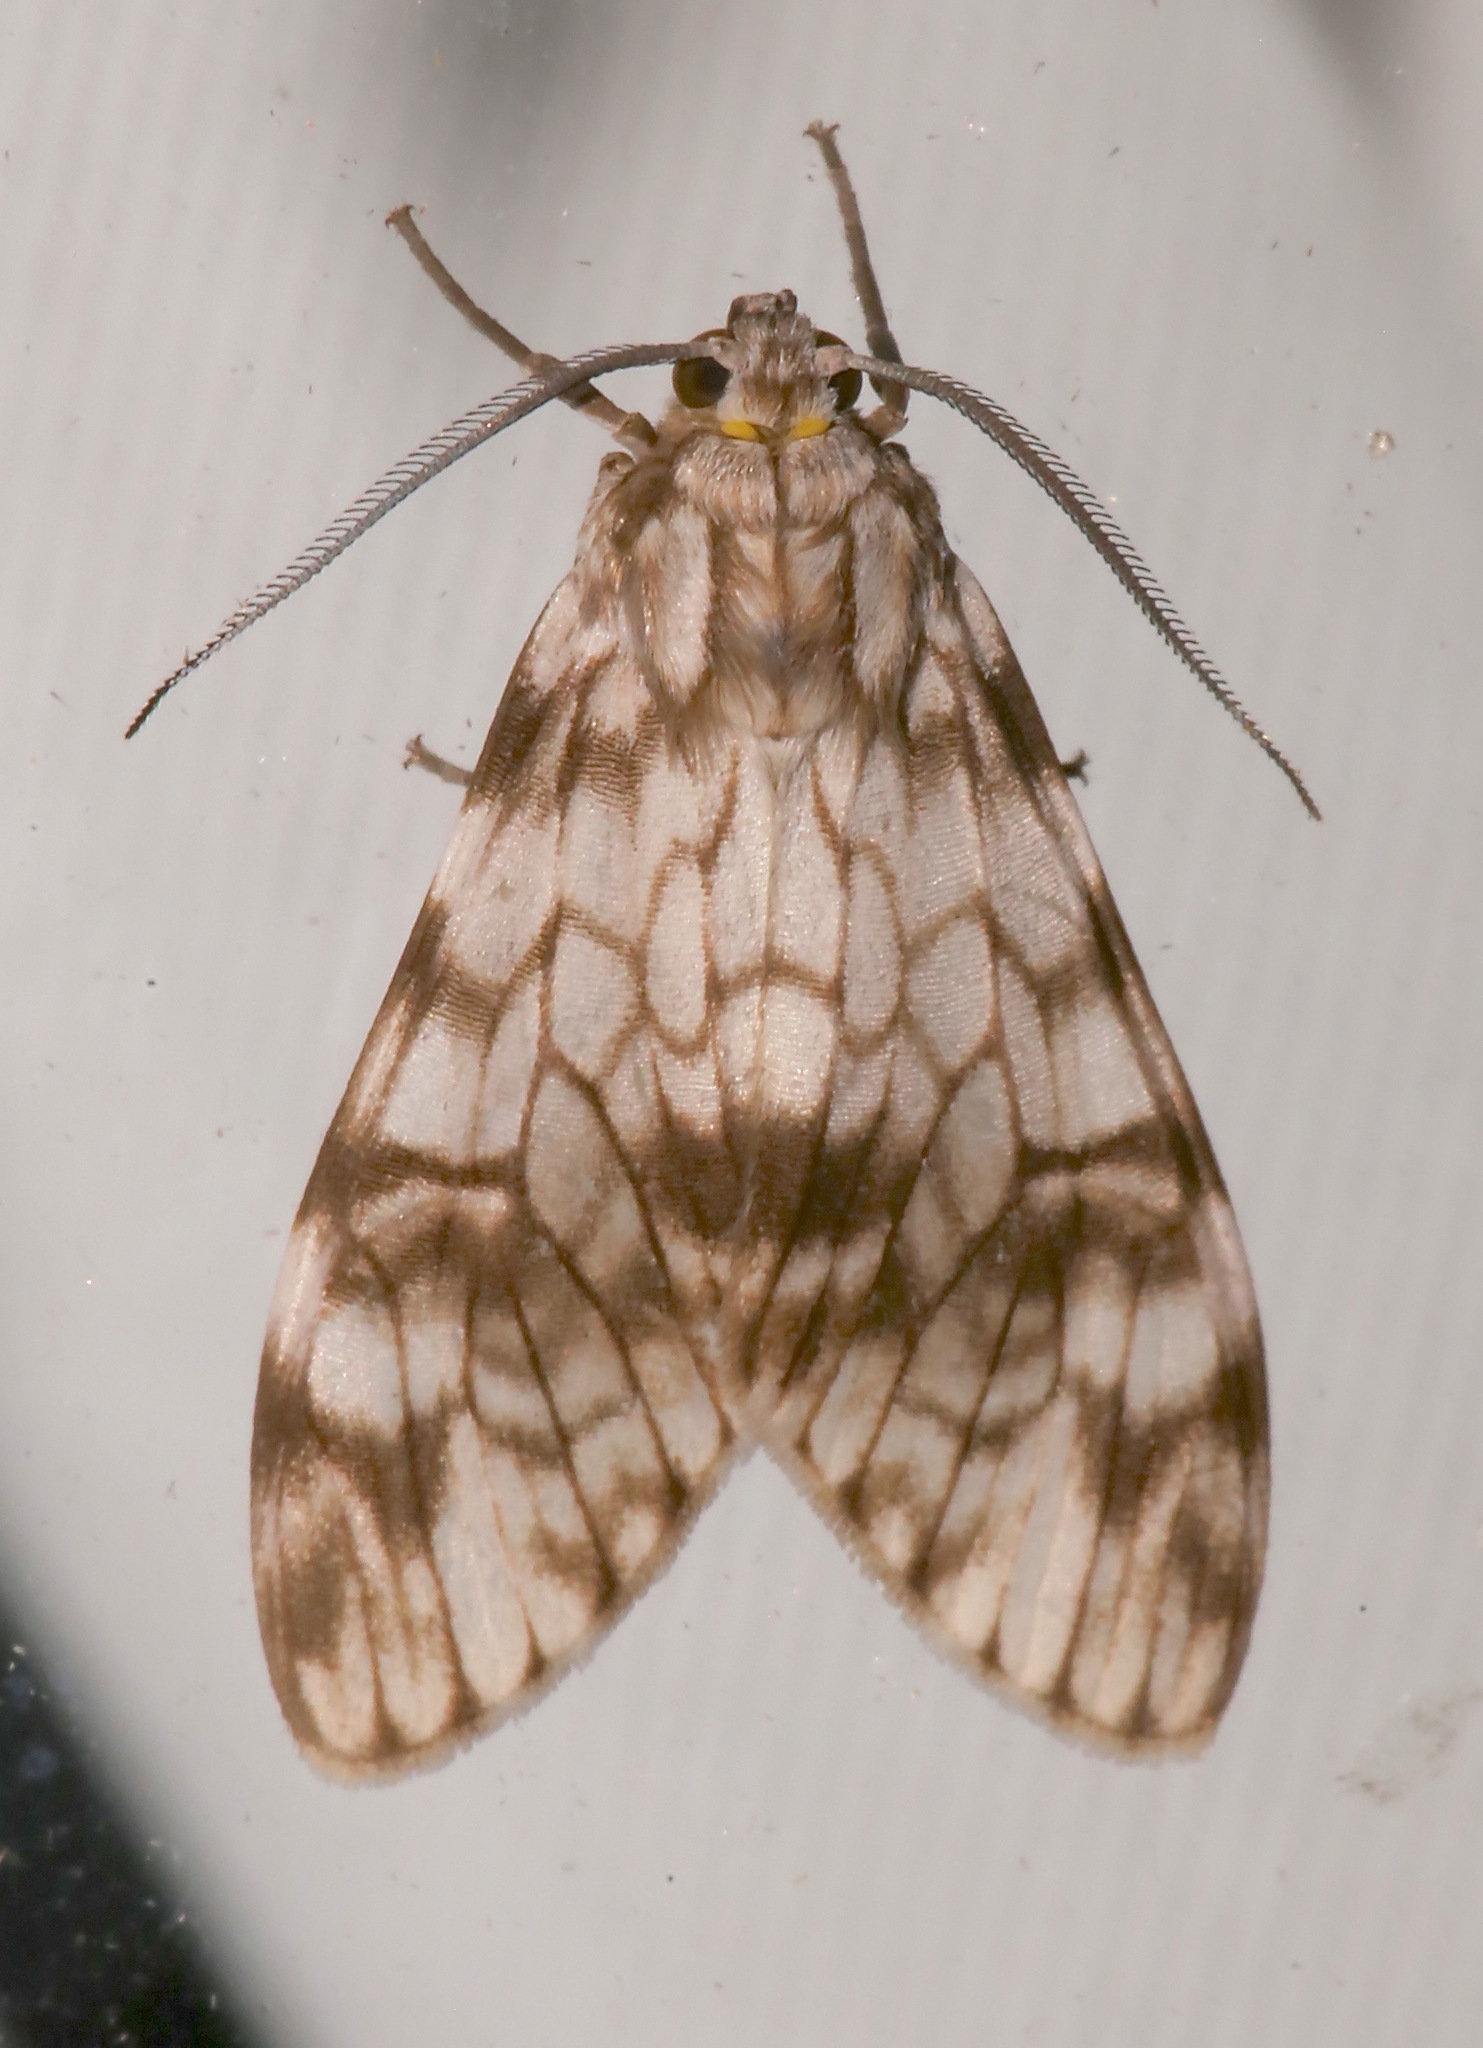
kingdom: Animalia
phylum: Arthropoda
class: Insecta
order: Lepidoptera
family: Erebidae
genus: Eucereon
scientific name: Eucereon chloraenoma
